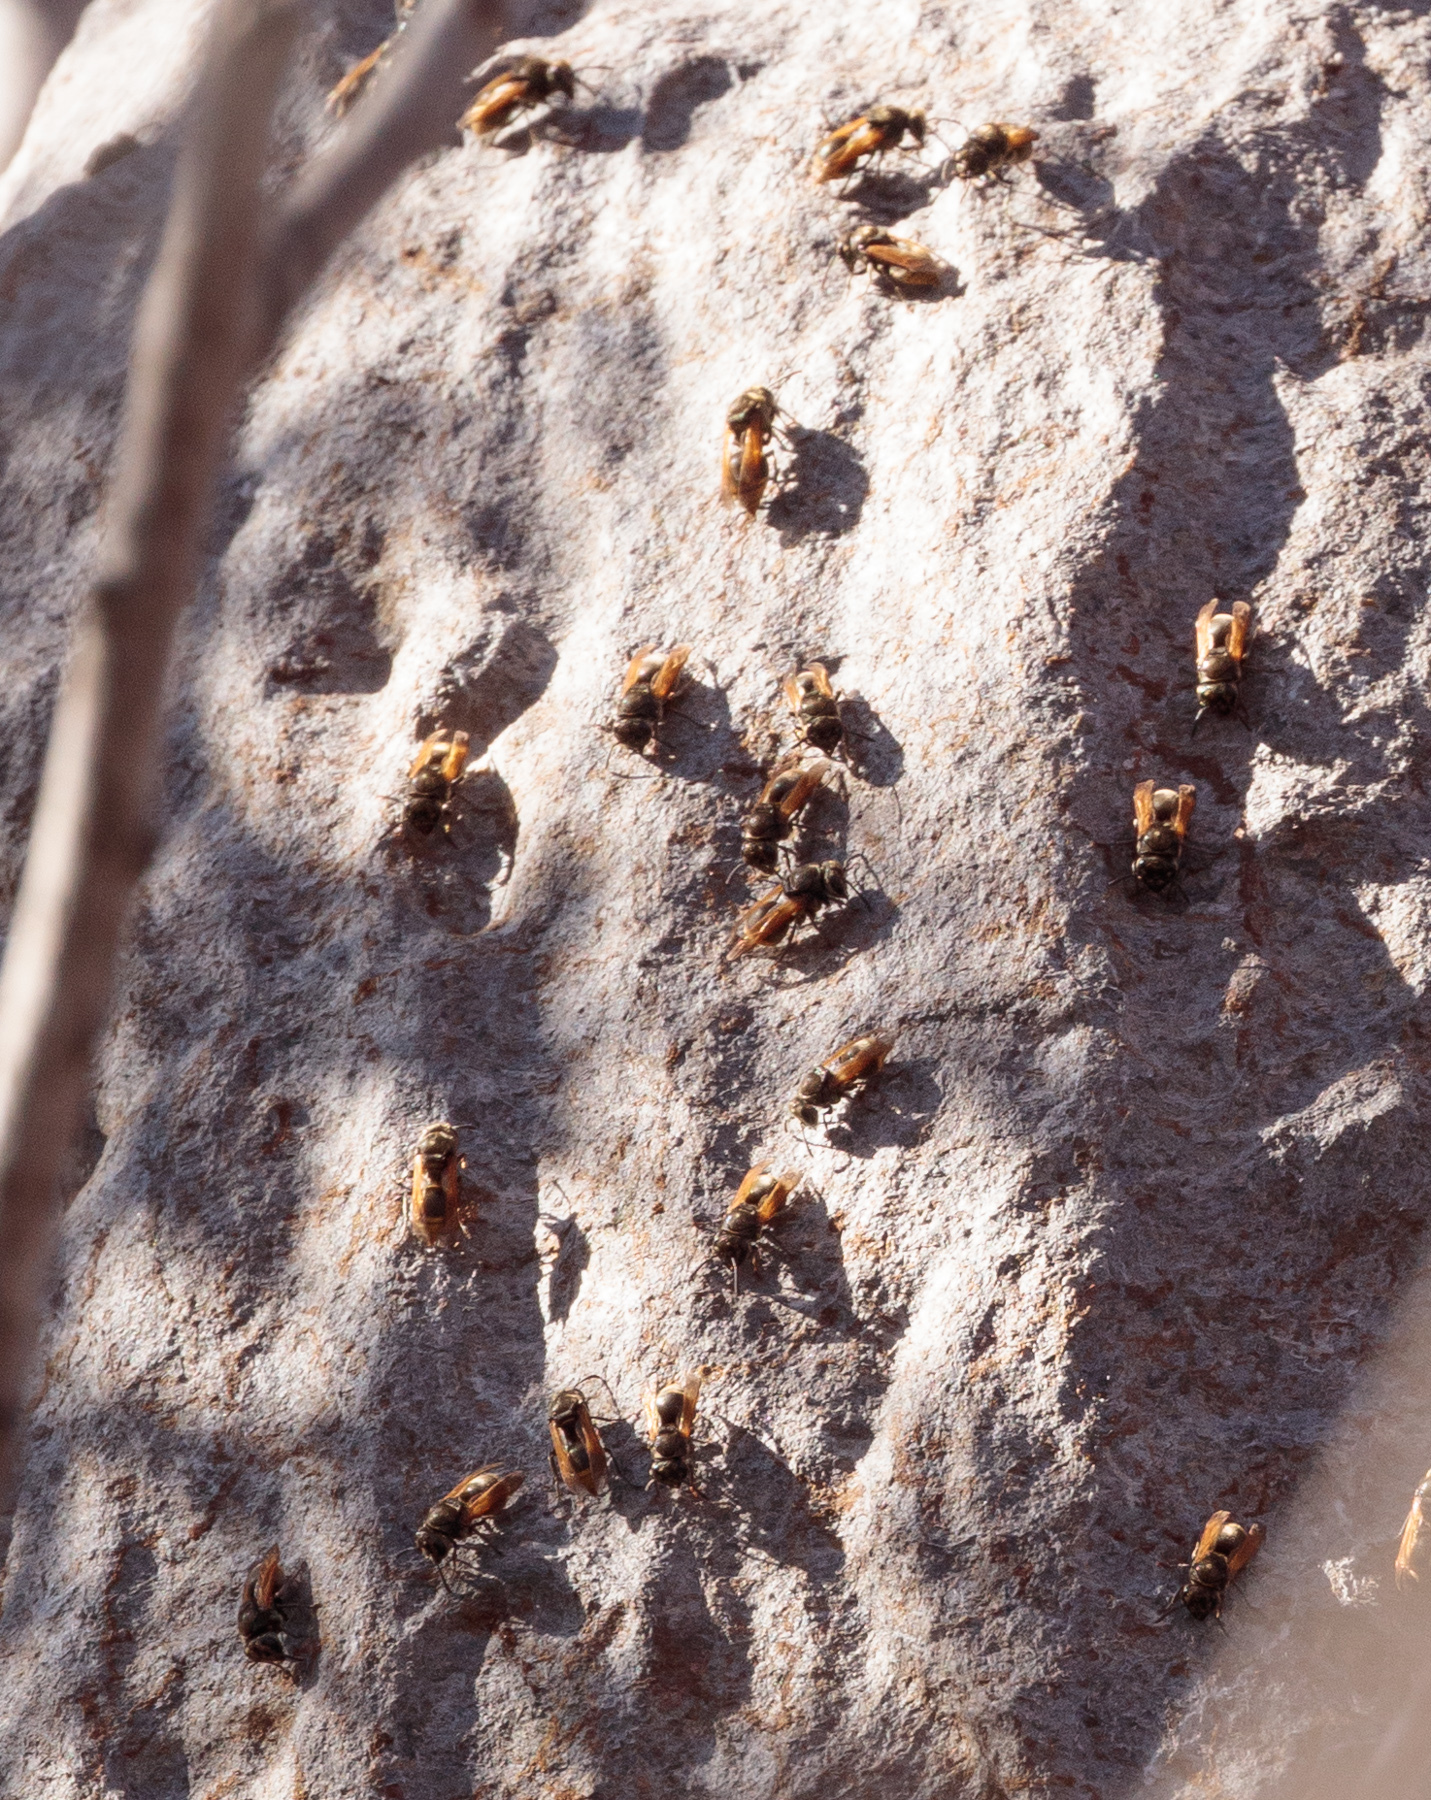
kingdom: Animalia
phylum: Arthropoda
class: Insecta
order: Hymenoptera
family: Vespidae
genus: Brachygastra
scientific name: Brachygastra mellifica
